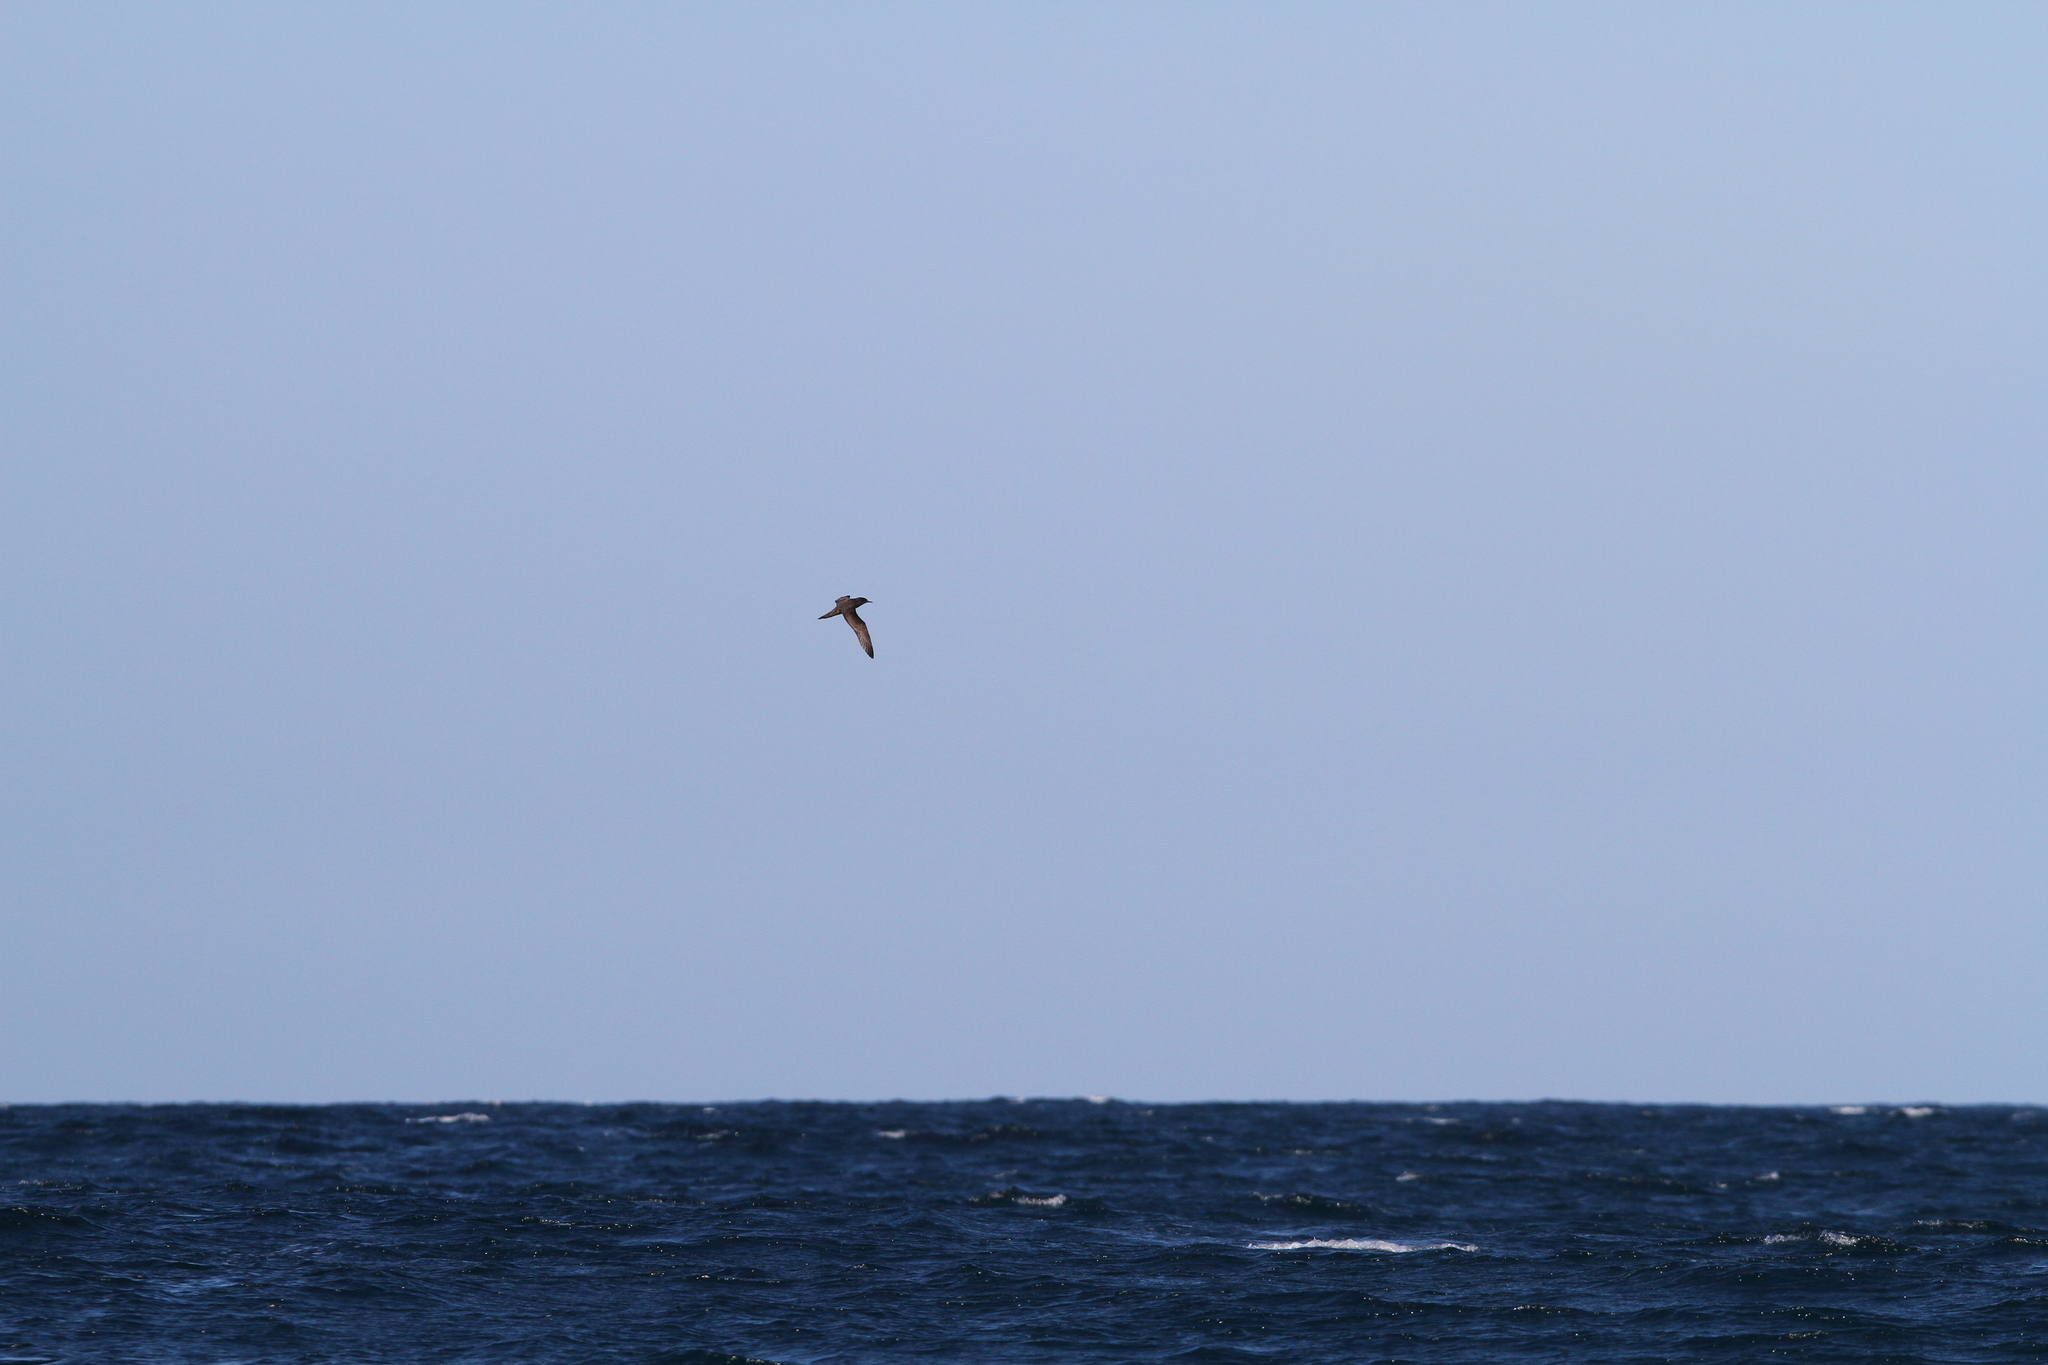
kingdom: Animalia
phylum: Chordata
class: Aves
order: Procellariiformes
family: Procellariidae
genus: Puffinus
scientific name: Puffinus pacificus
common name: Wedge-tailed shearwater
